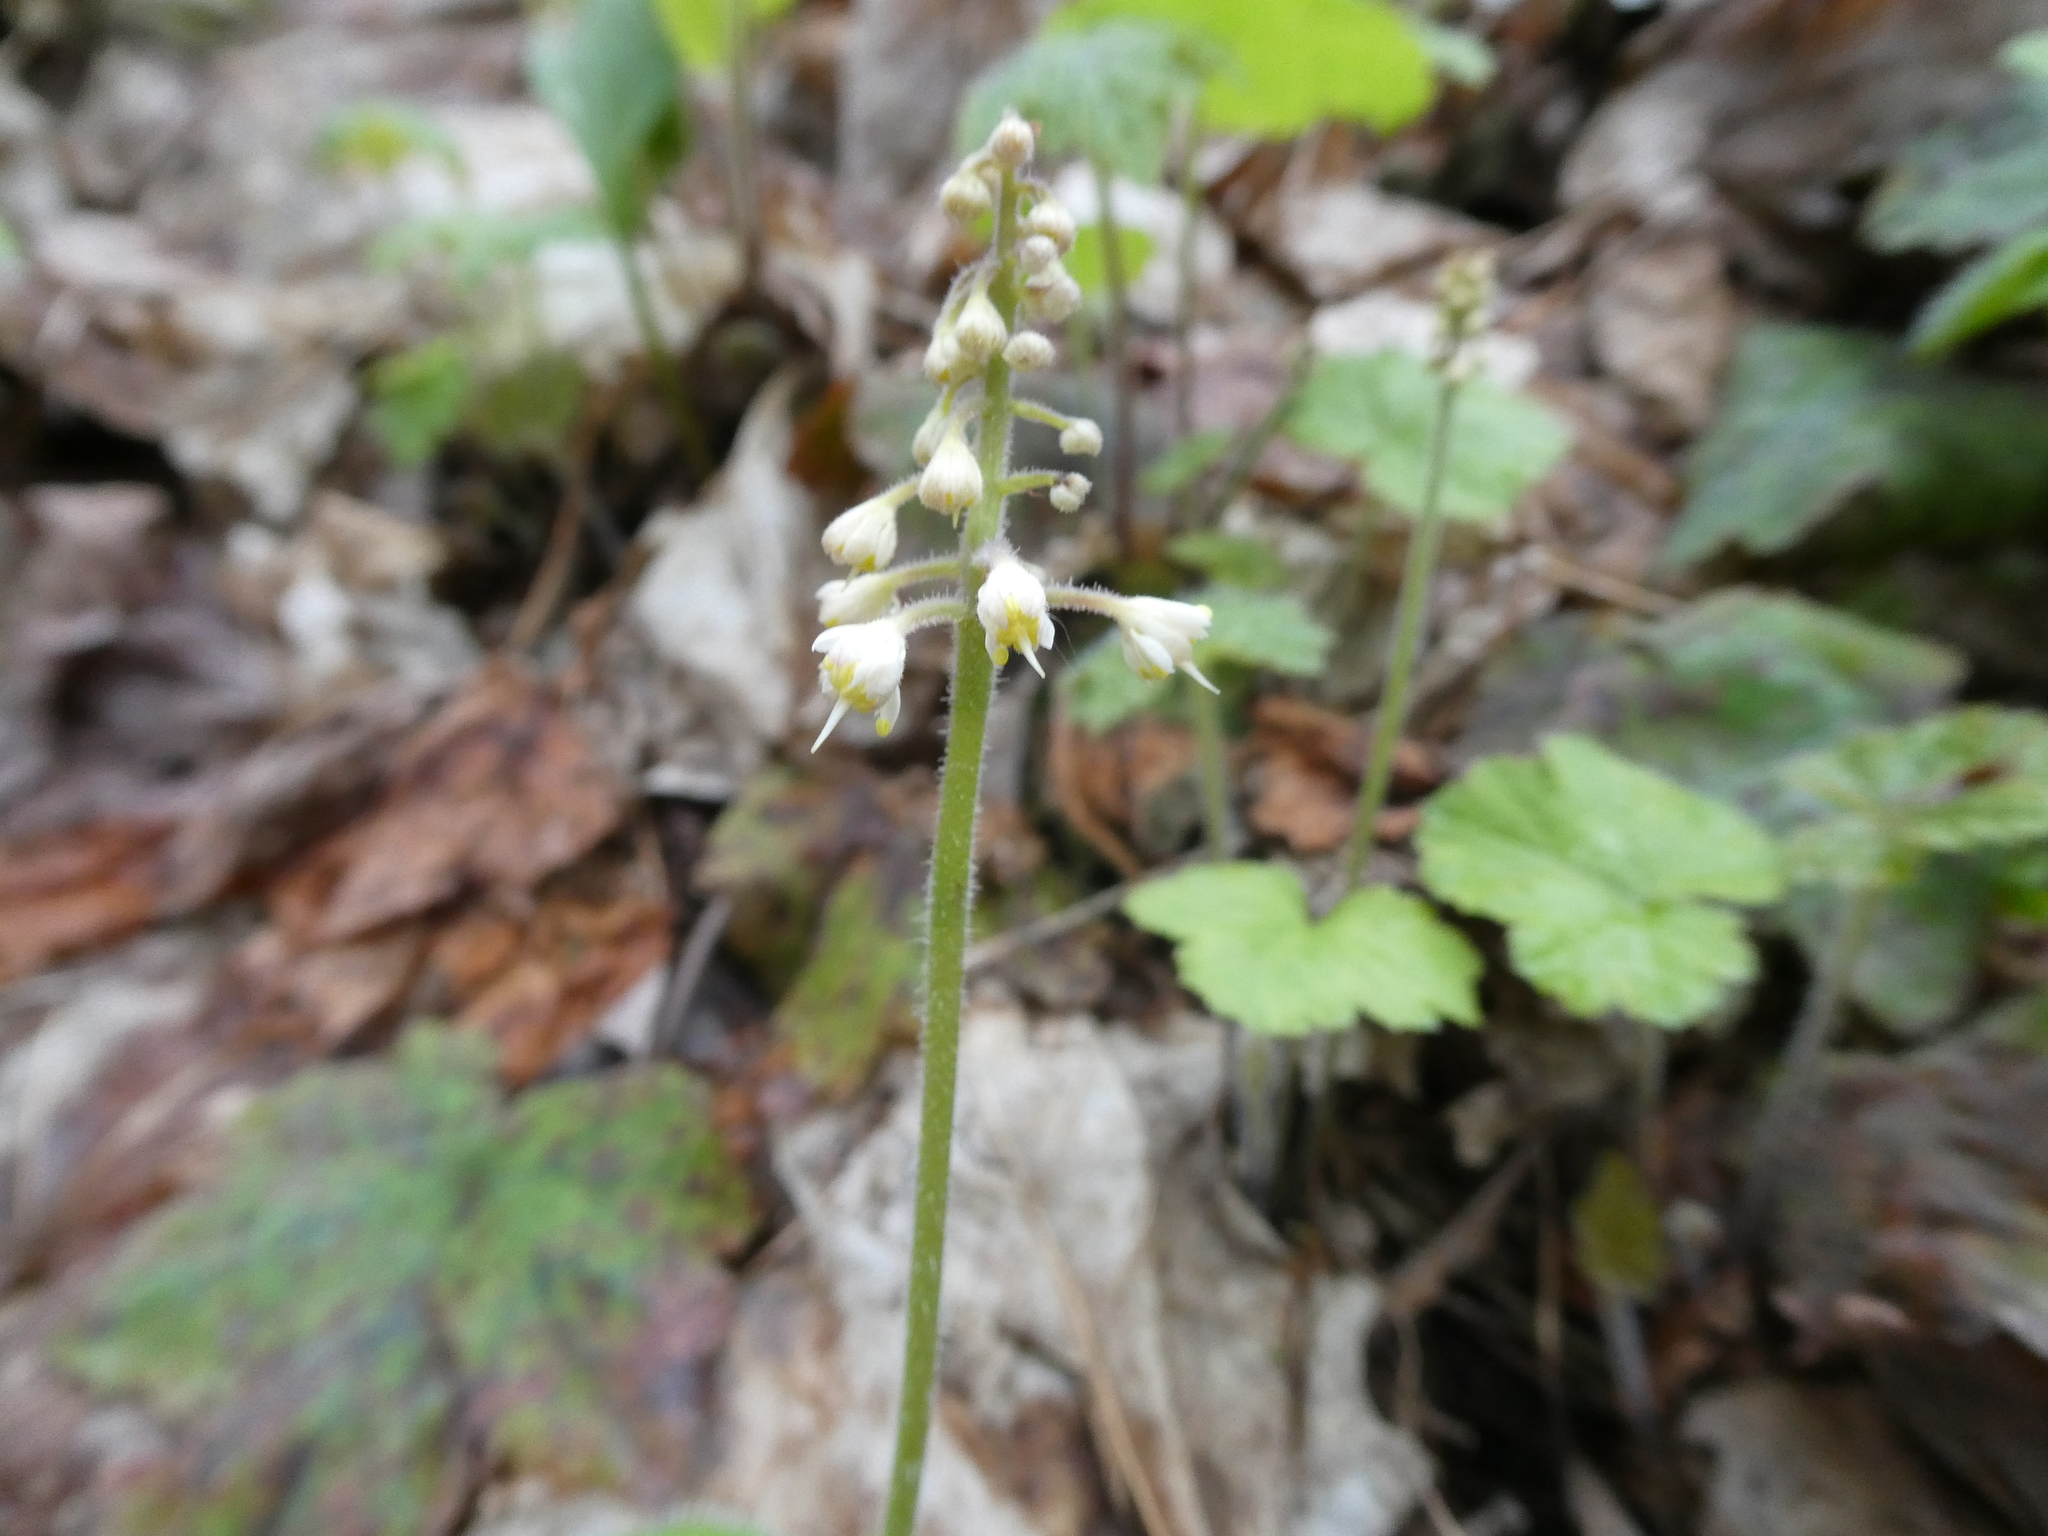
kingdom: Plantae
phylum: Tracheophyta
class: Magnoliopsida
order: Saxifragales
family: Saxifragaceae
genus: Tiarella
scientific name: Tiarella stolonifera
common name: Stoloniferous foamflower
